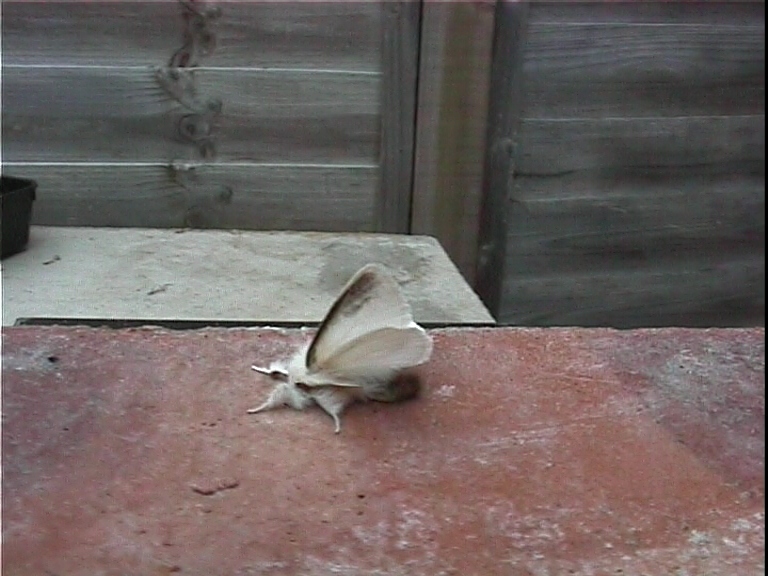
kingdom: Animalia
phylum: Arthropoda
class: Insecta
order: Lepidoptera
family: Erebidae
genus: Euproctis
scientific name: Euproctis chrysorrhoea
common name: Brown-tail
